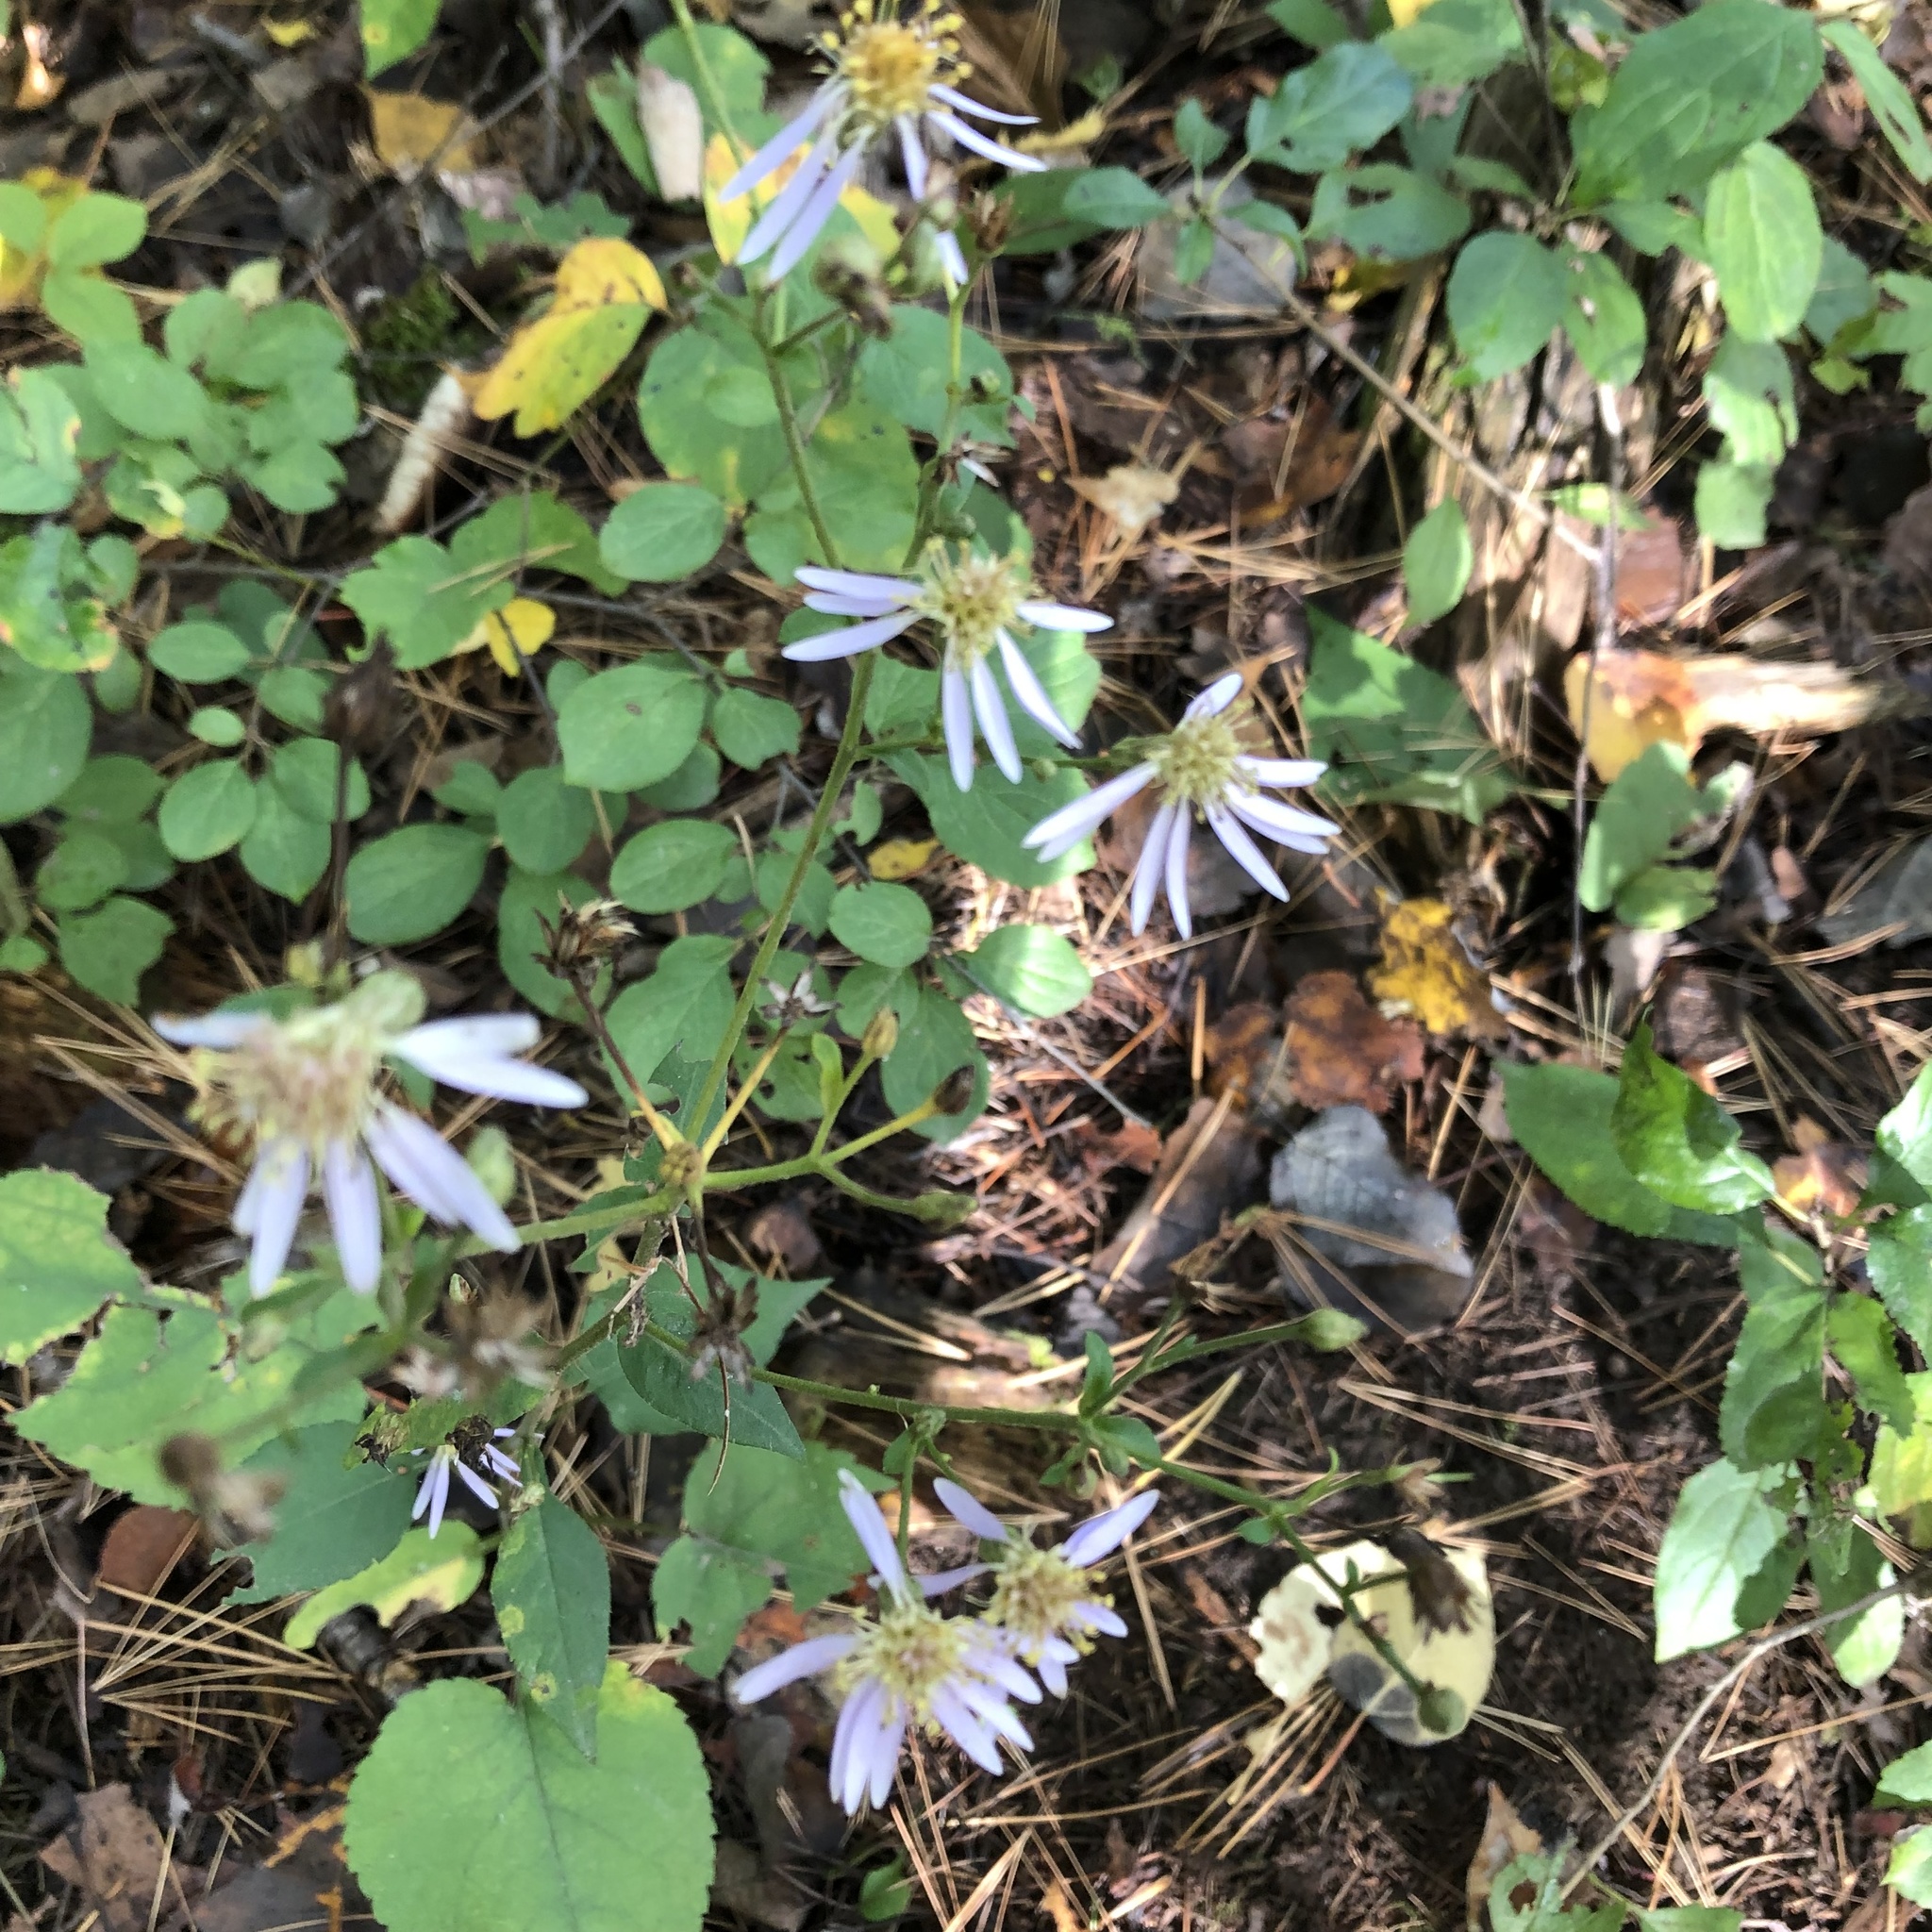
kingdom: Plantae
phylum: Tracheophyta
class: Magnoliopsida
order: Asterales
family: Asteraceae
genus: Eurybia
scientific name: Eurybia macrophylla
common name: Big-leaved aster
